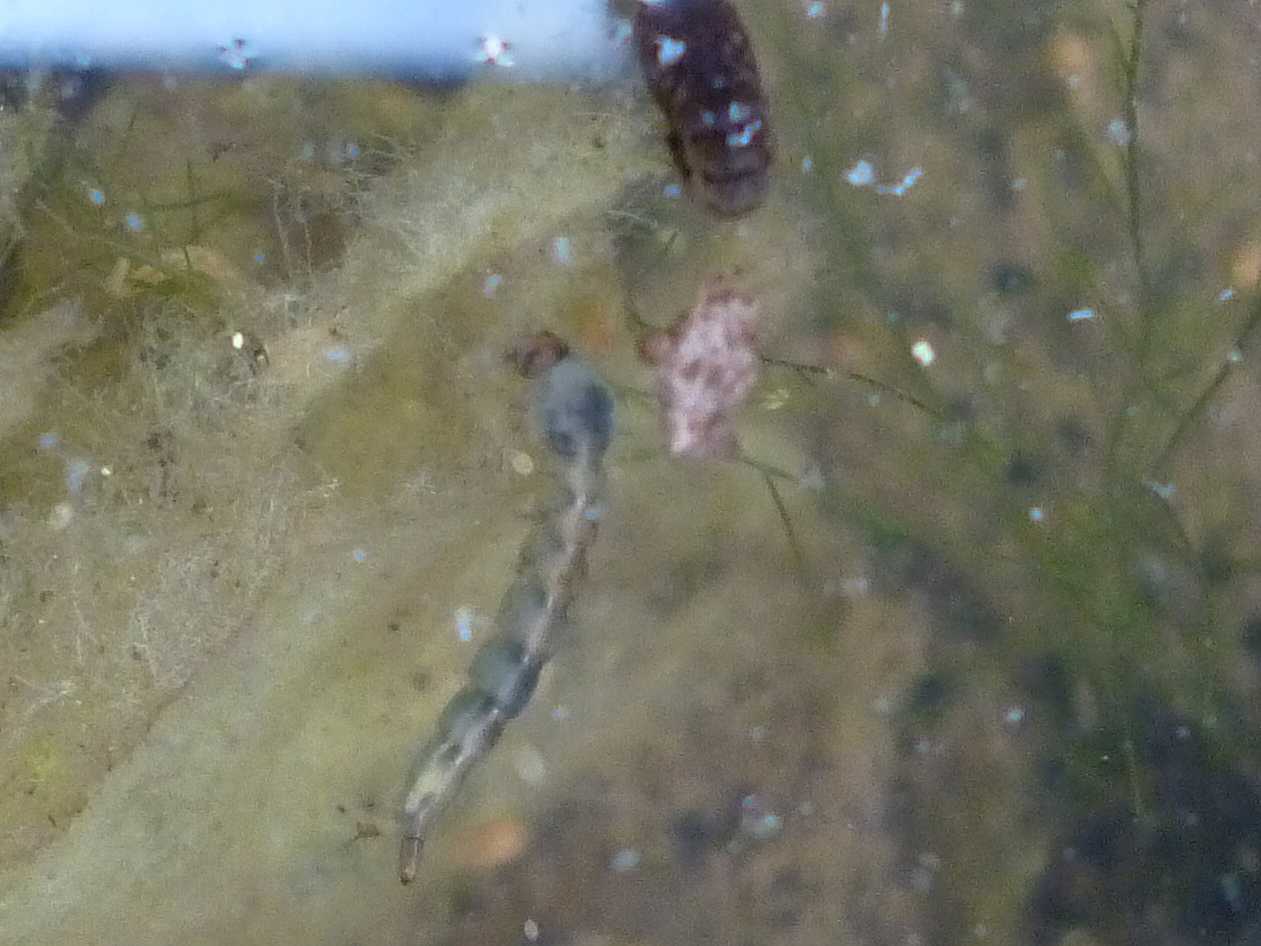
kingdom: Animalia
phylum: Arthropoda
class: Insecta
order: Diptera
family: Culicidae
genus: Aedes
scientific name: Aedes albopictus
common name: Tiger mosquito
